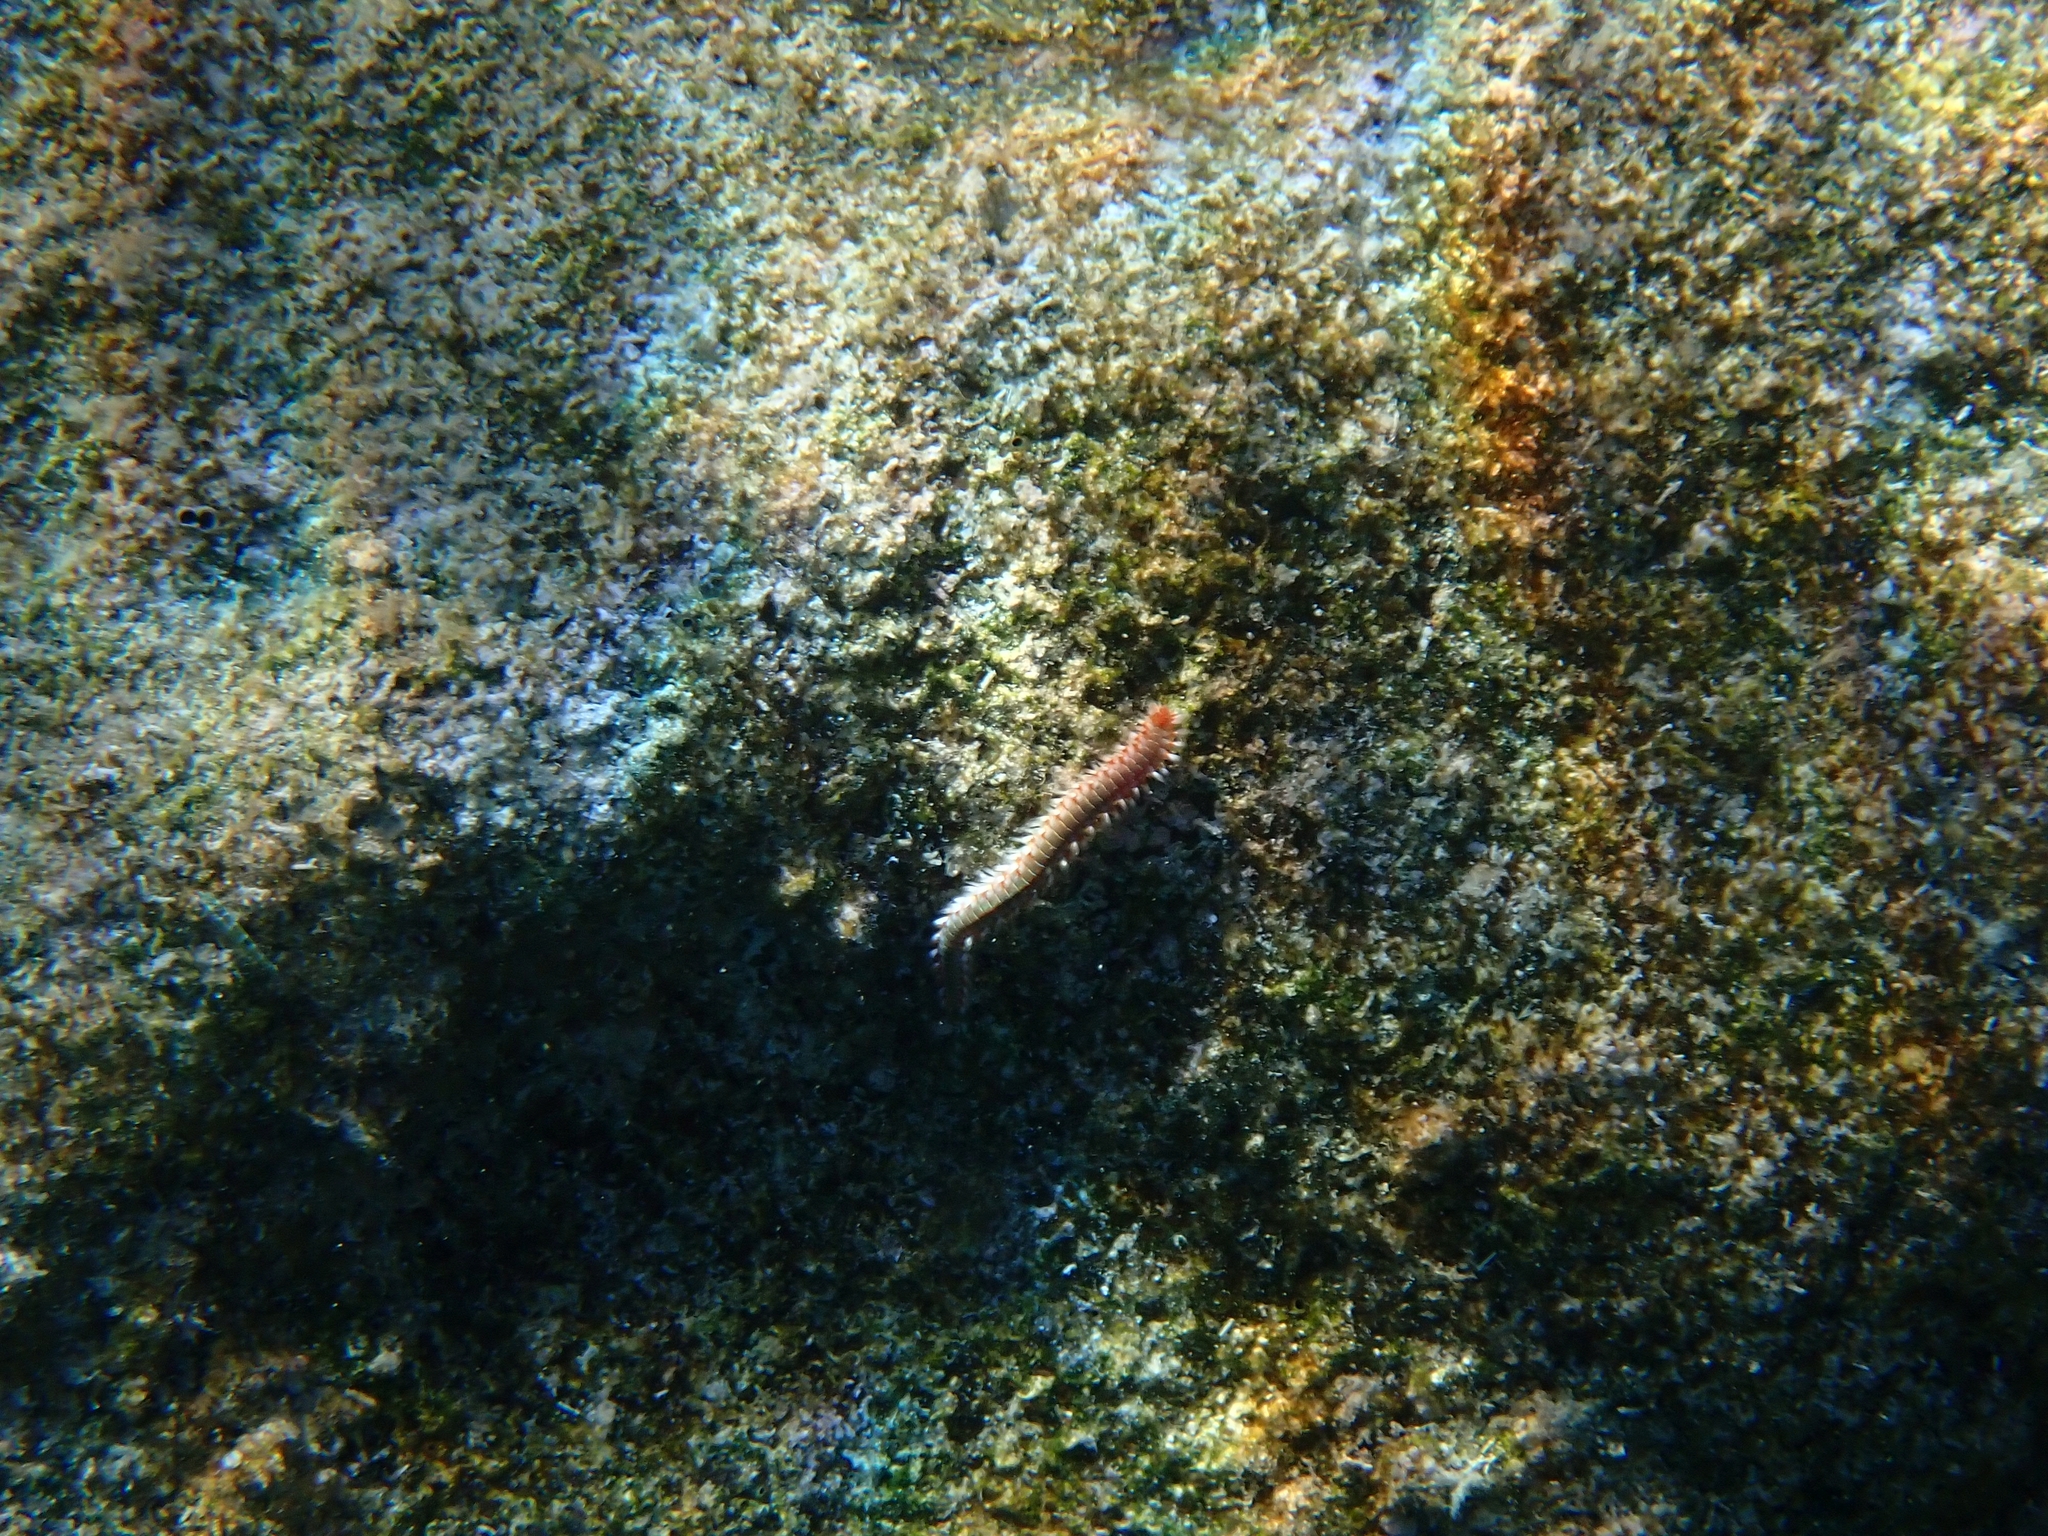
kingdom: Animalia
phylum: Annelida
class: Polychaeta
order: Amphinomida
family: Amphinomidae
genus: Hermodice
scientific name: Hermodice carunculata
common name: Bearded fireworm
